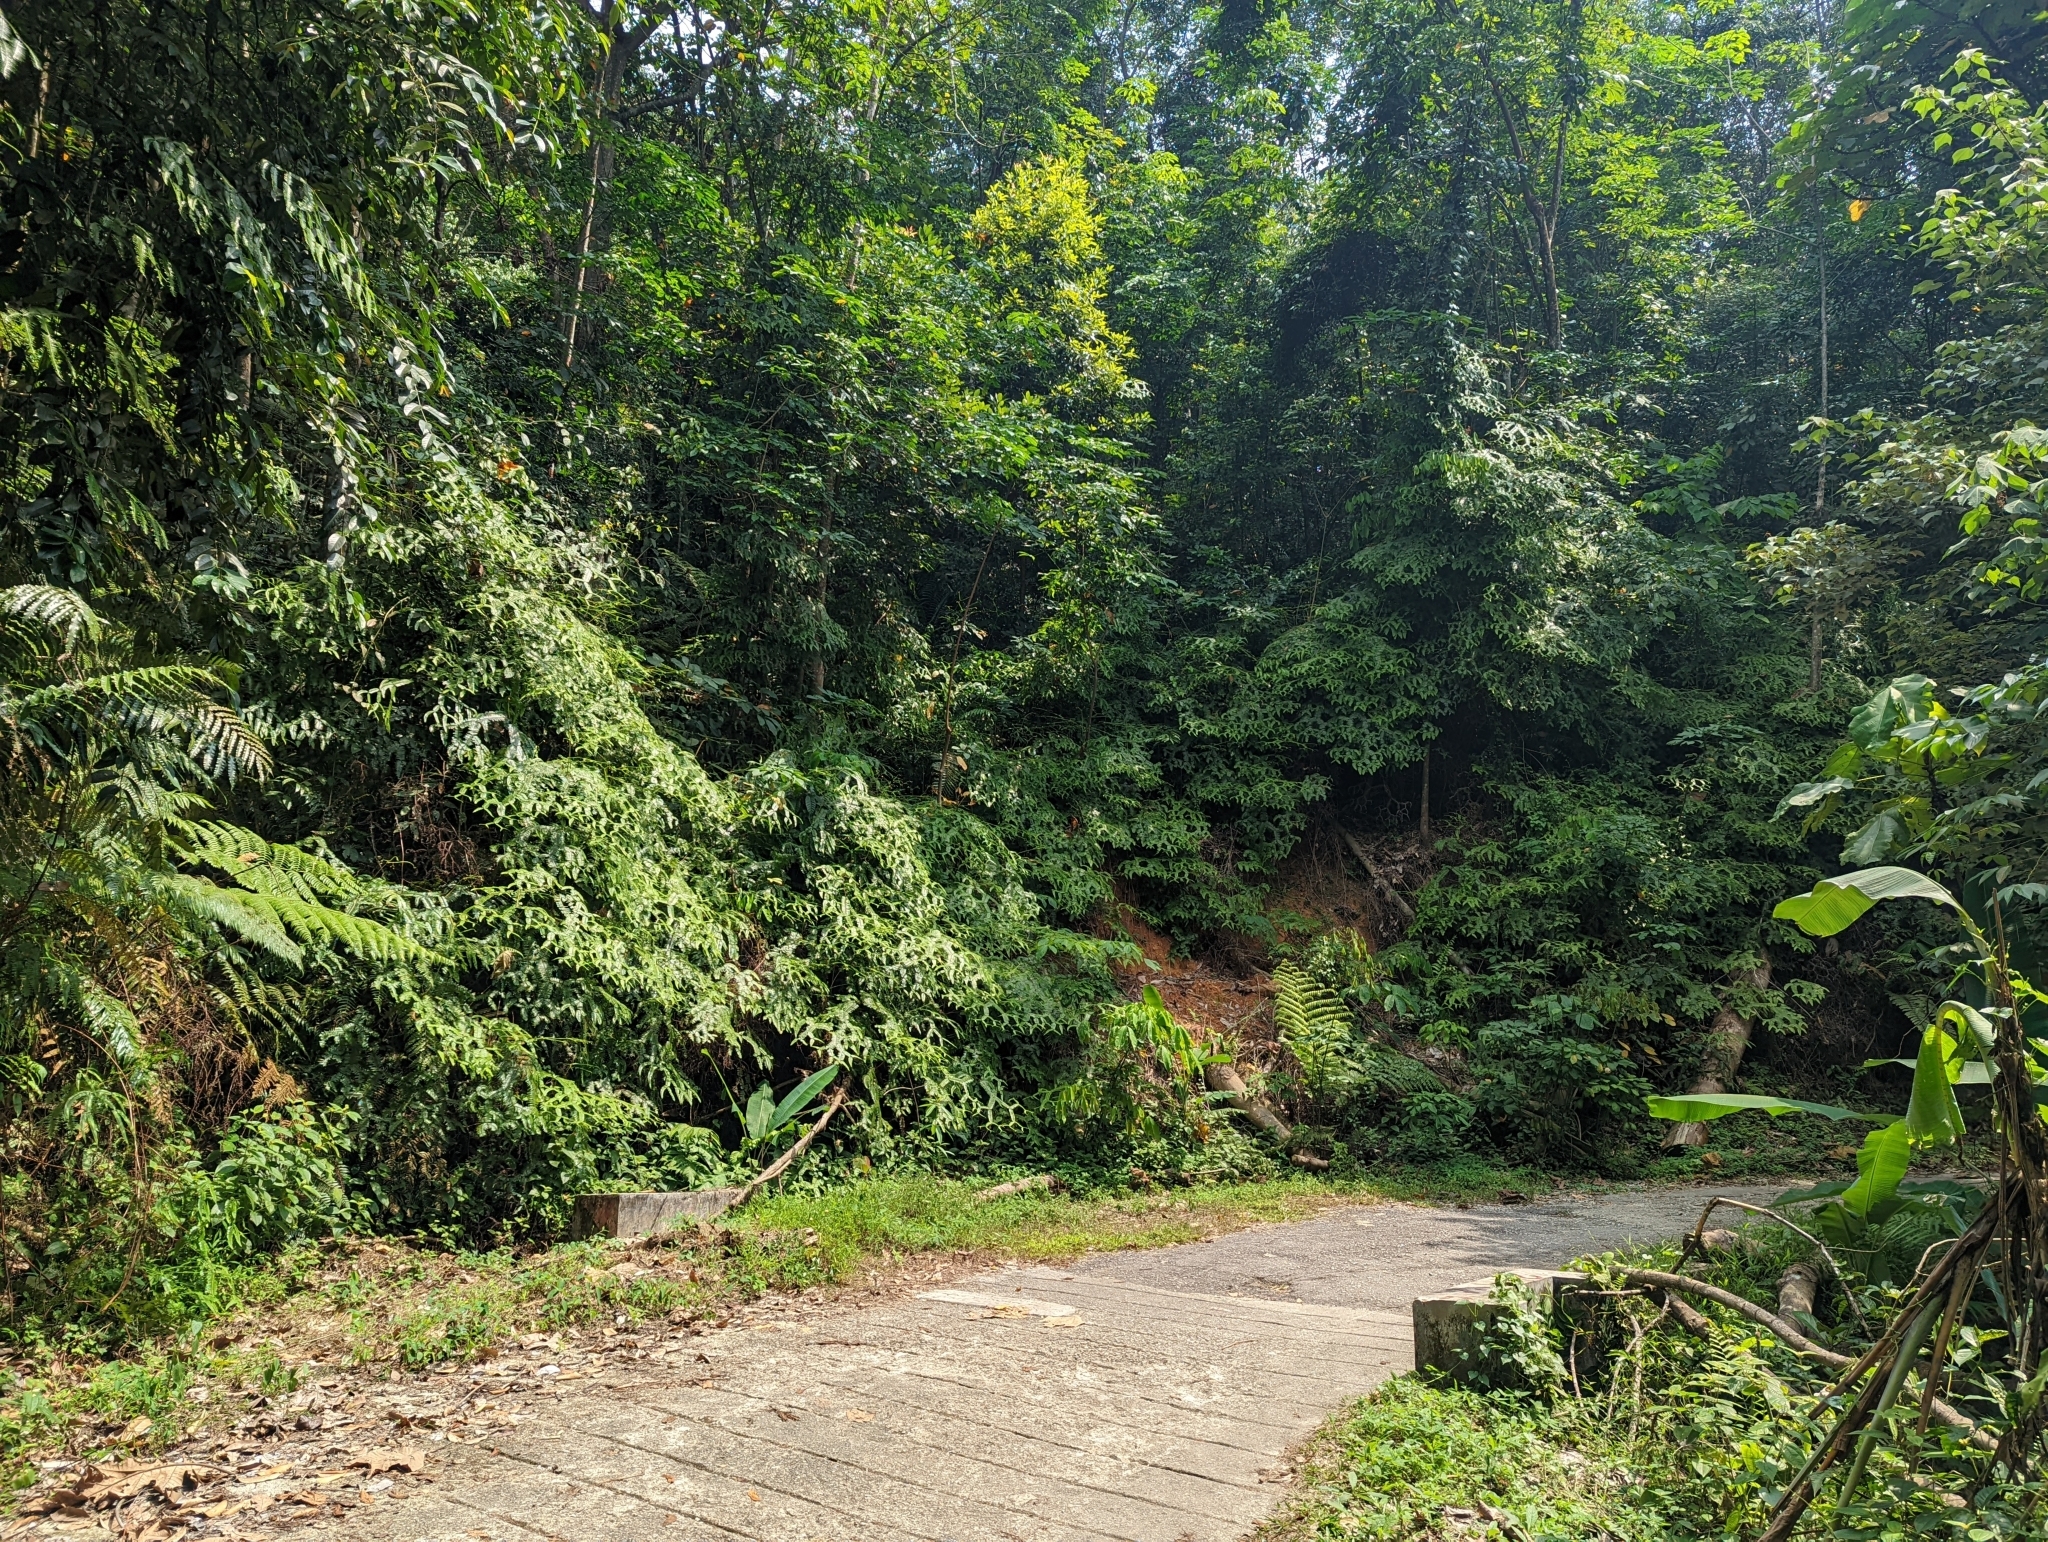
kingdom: Plantae
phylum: Tracheophyta
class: Polypodiopsida
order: Gleicheniales
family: Gleicheniaceae
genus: Sticherus
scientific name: Sticherus truncatus
